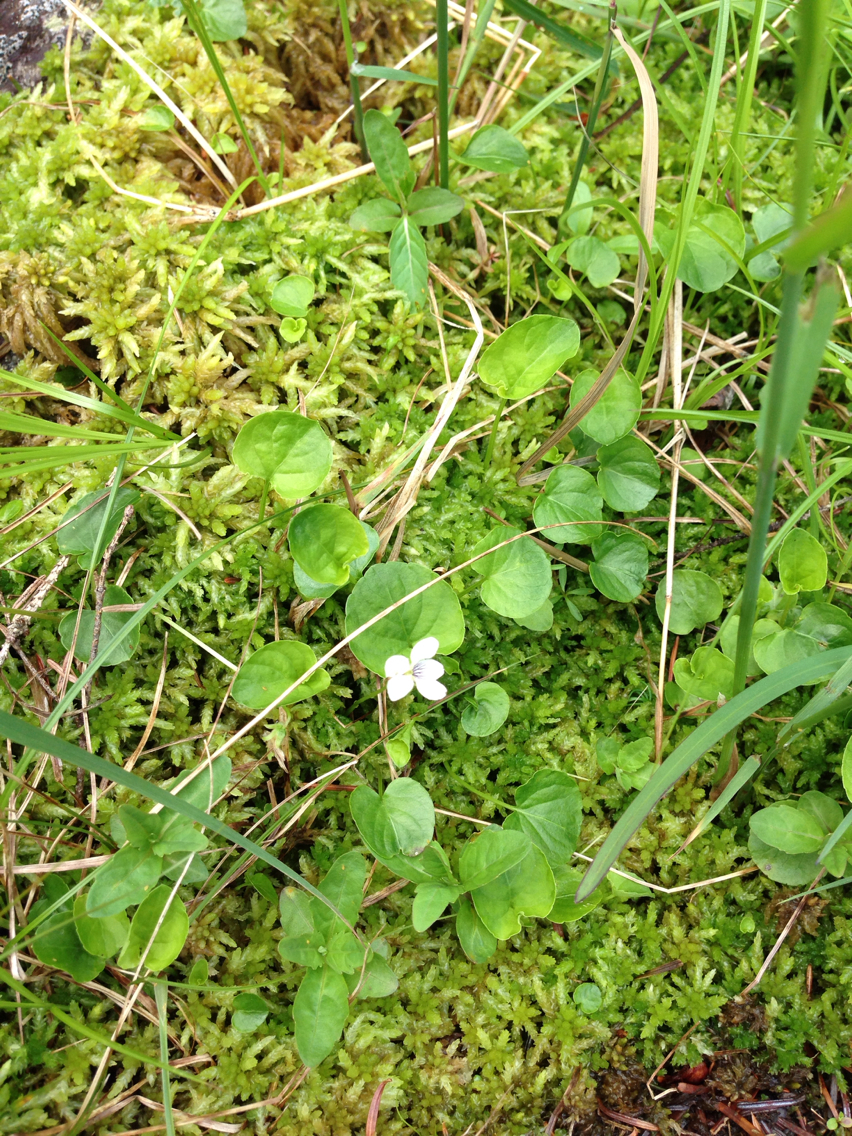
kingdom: Plantae
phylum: Tracheophyta
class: Magnoliopsida
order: Malpighiales
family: Violaceae
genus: Viola
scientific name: Viola minuscula
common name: Northern white violet
